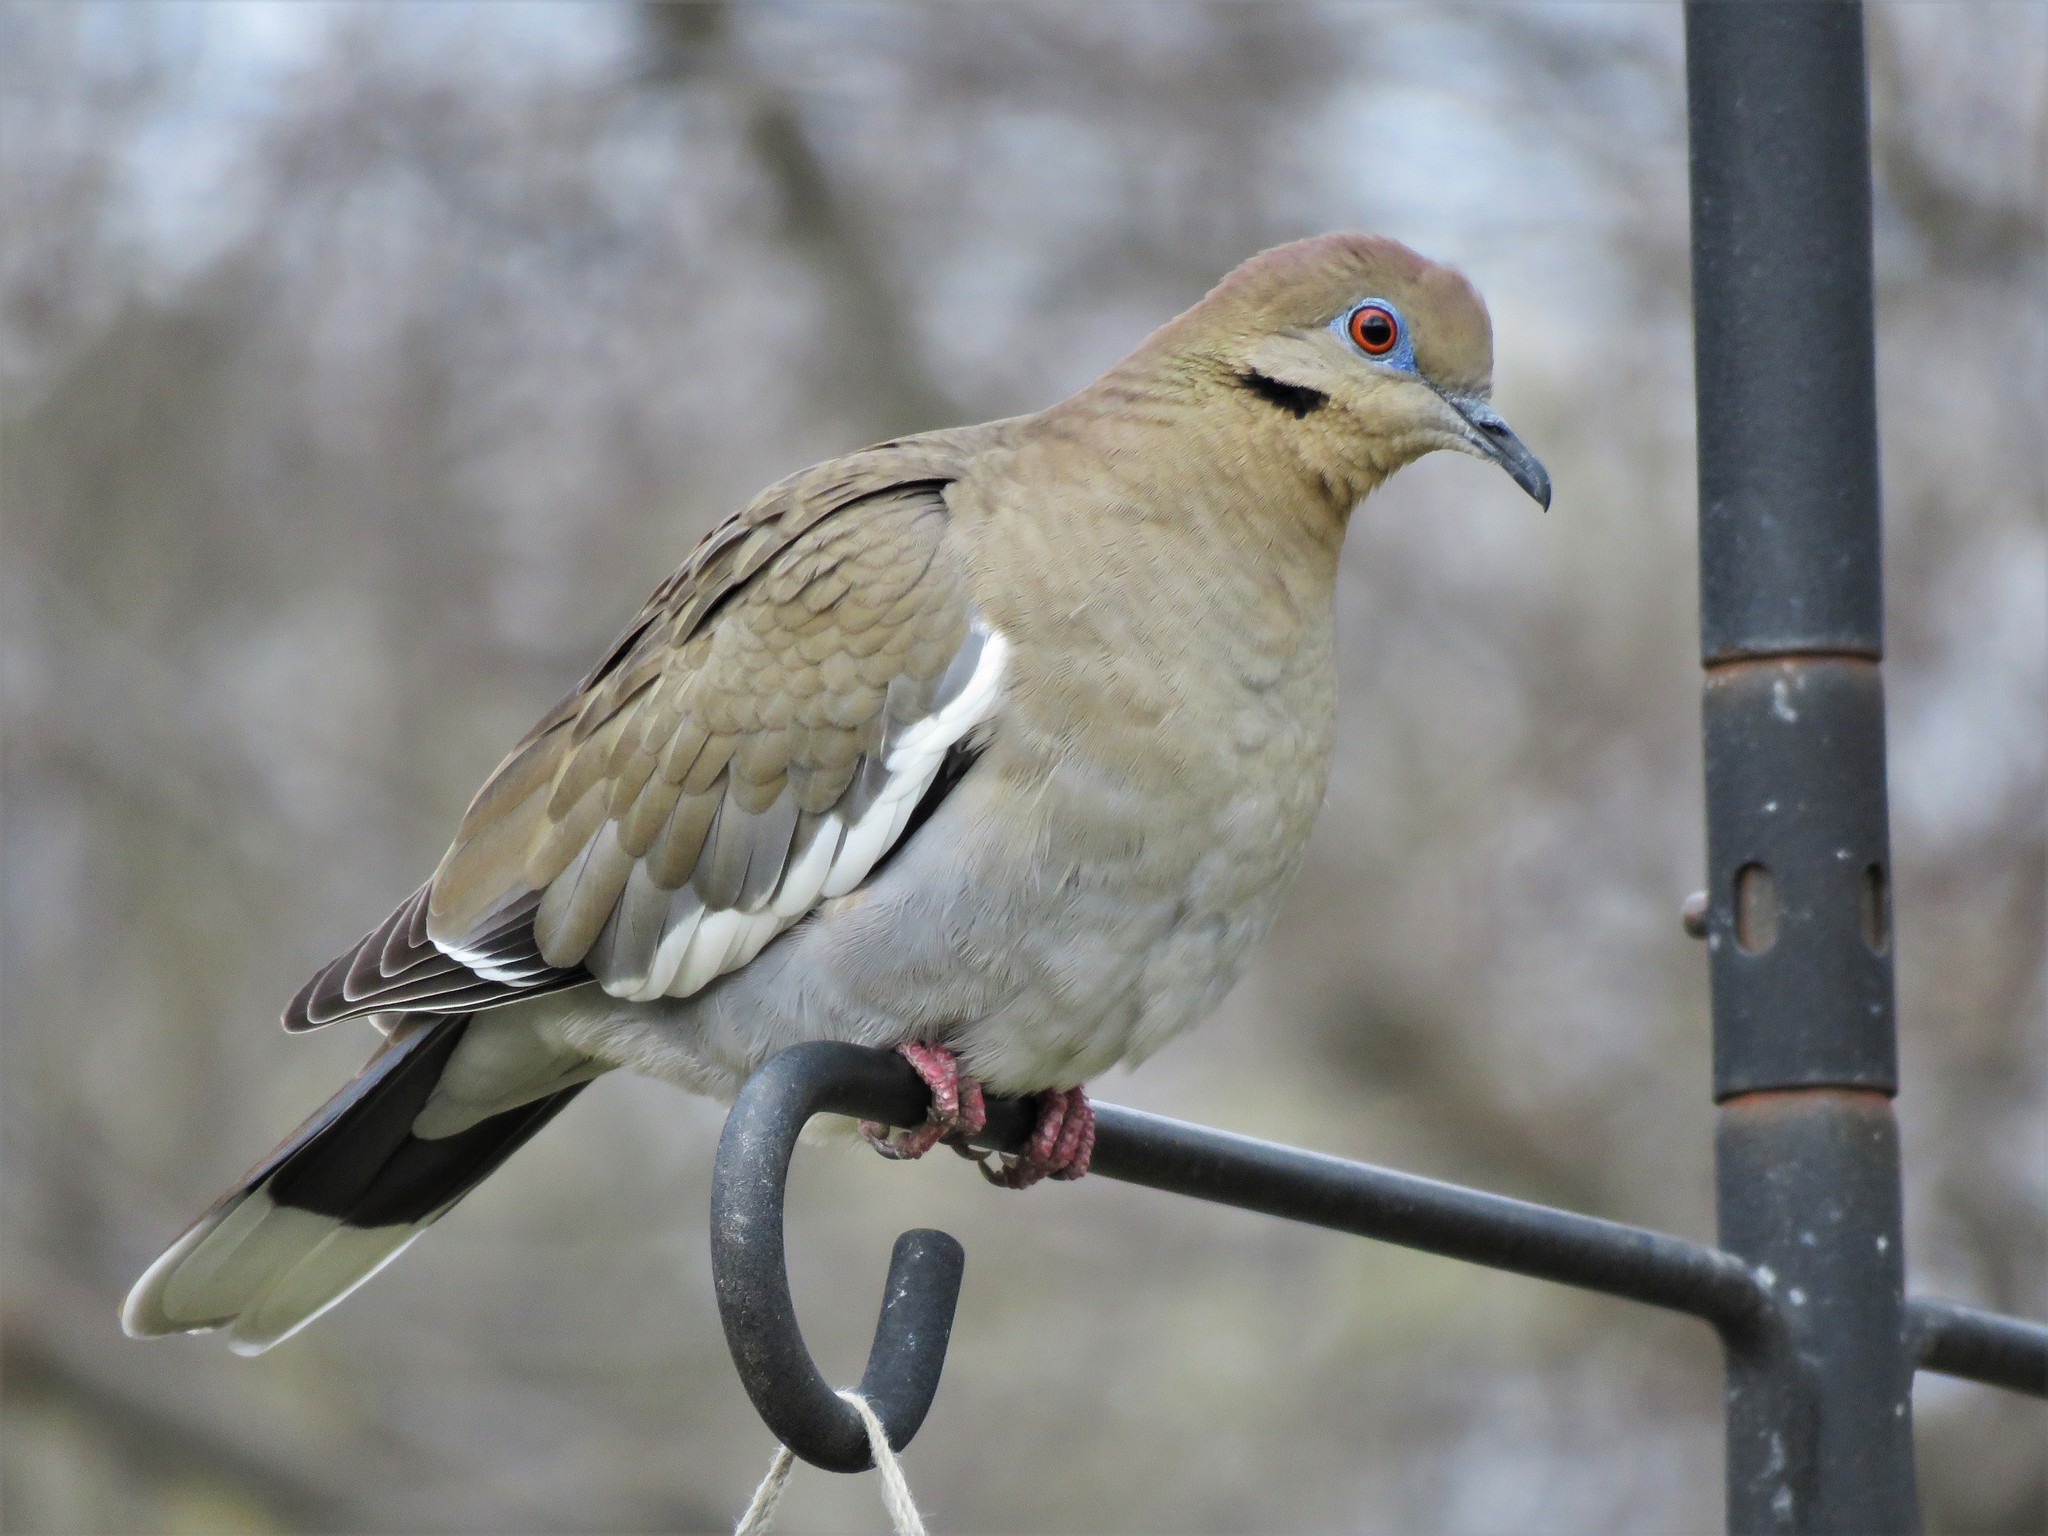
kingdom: Animalia
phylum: Chordata
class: Aves
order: Columbiformes
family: Columbidae
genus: Zenaida
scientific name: Zenaida asiatica
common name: White-winged dove
